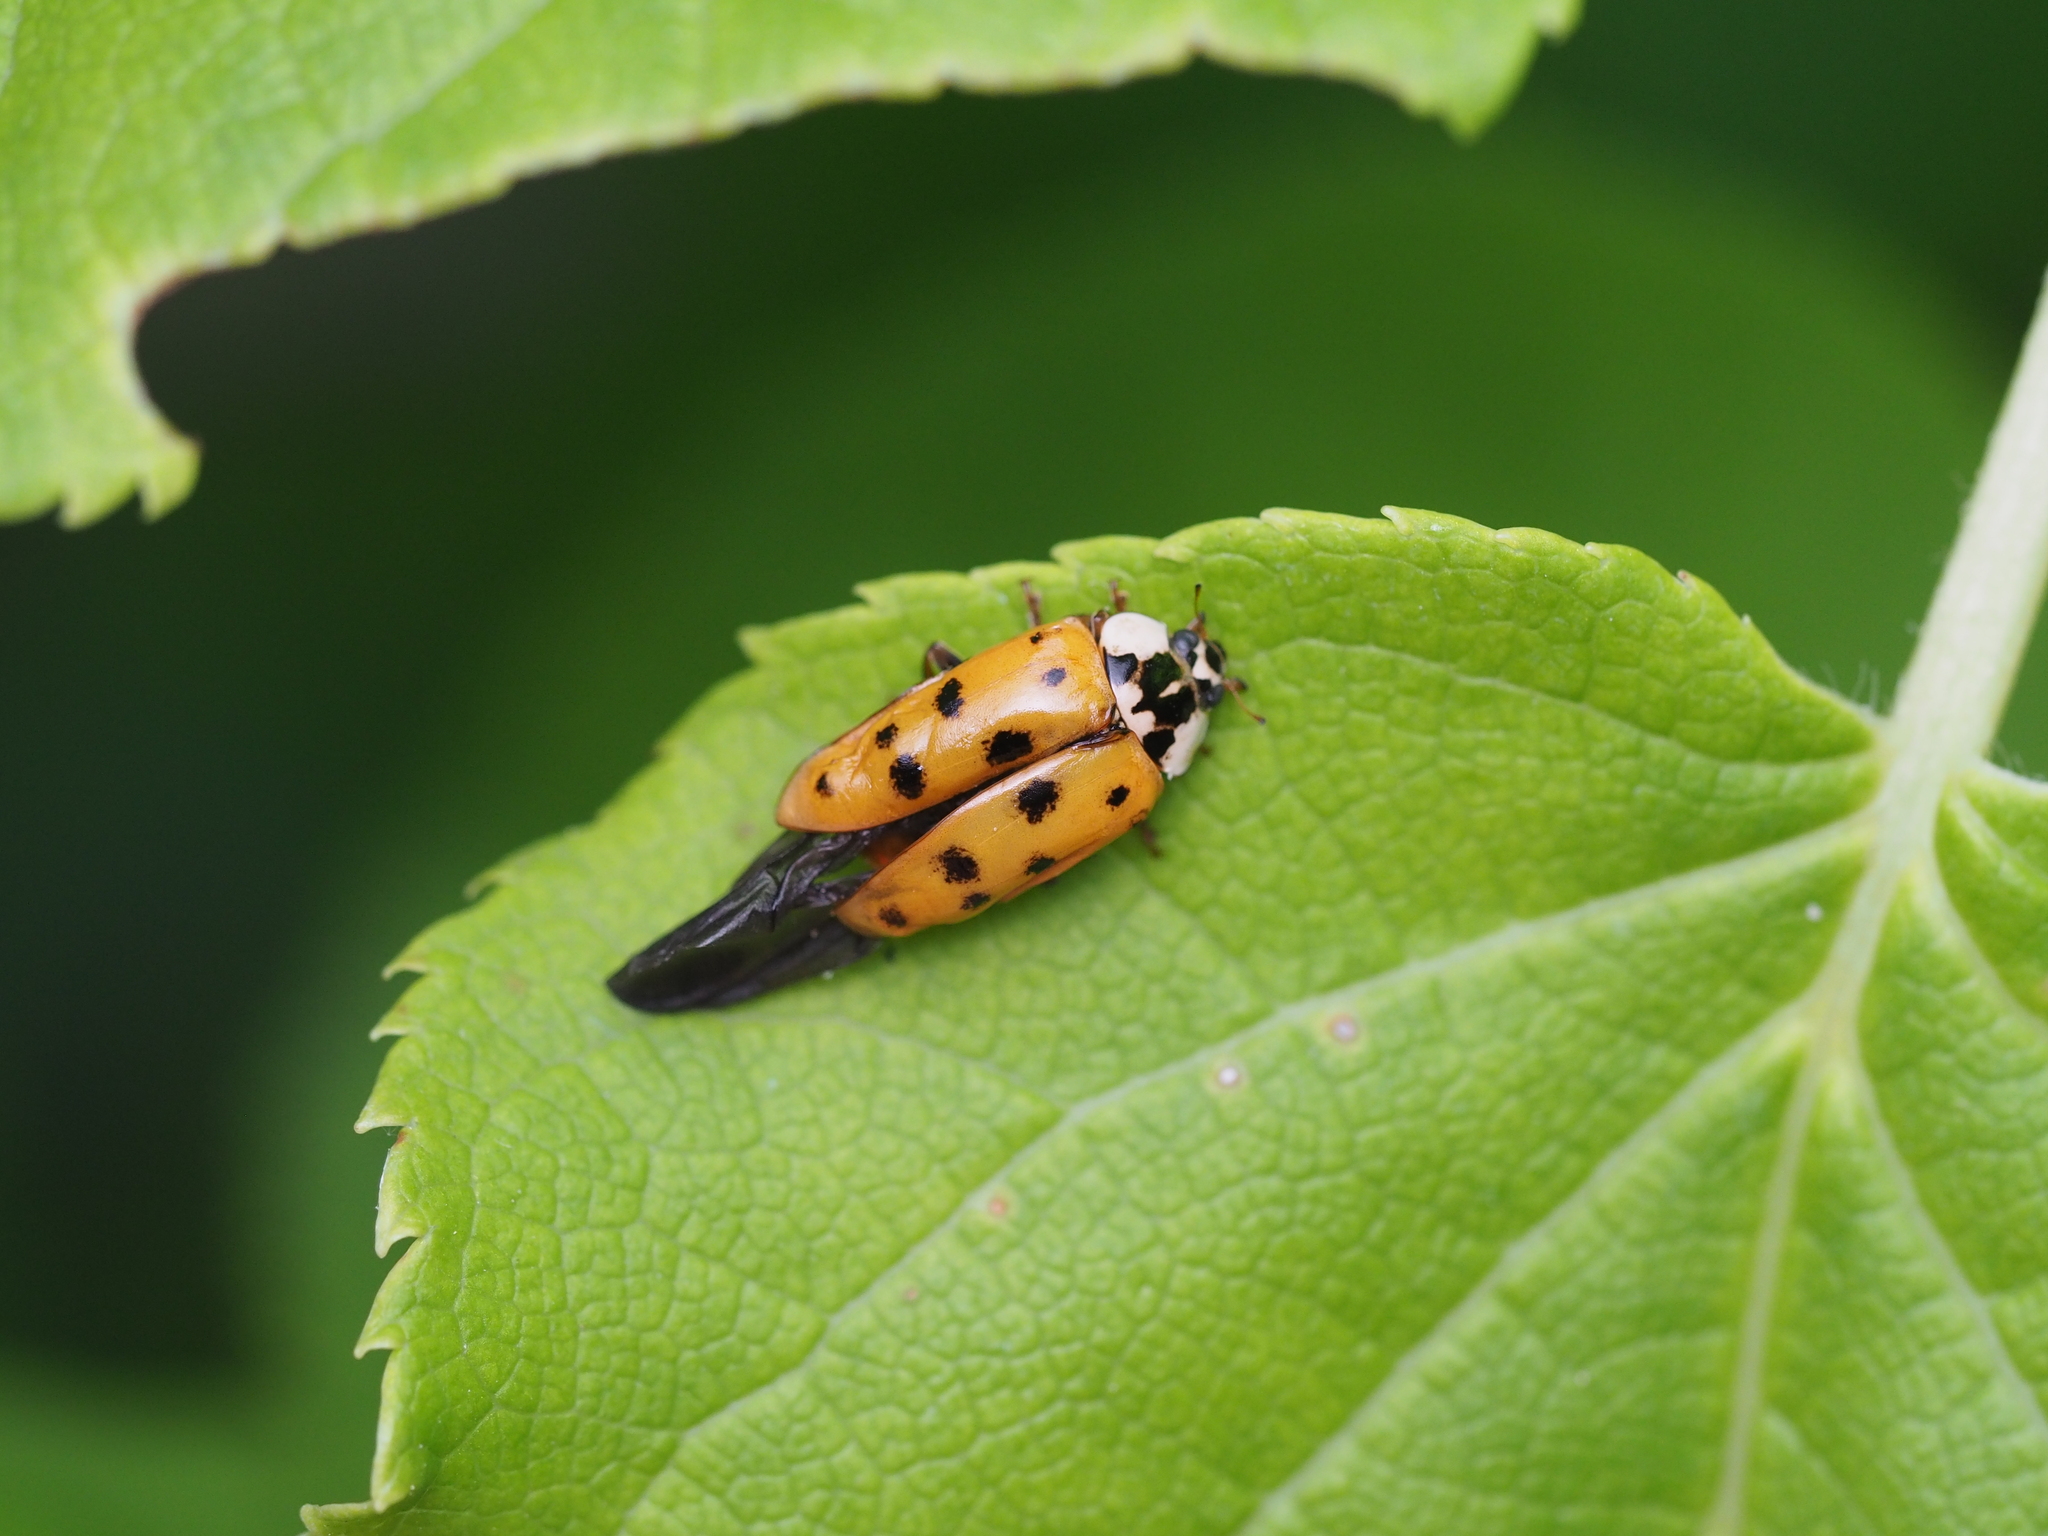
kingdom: Animalia
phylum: Arthropoda
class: Insecta
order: Coleoptera
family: Coccinellidae
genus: Harmonia
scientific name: Harmonia axyridis
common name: Harlequin ladybird
